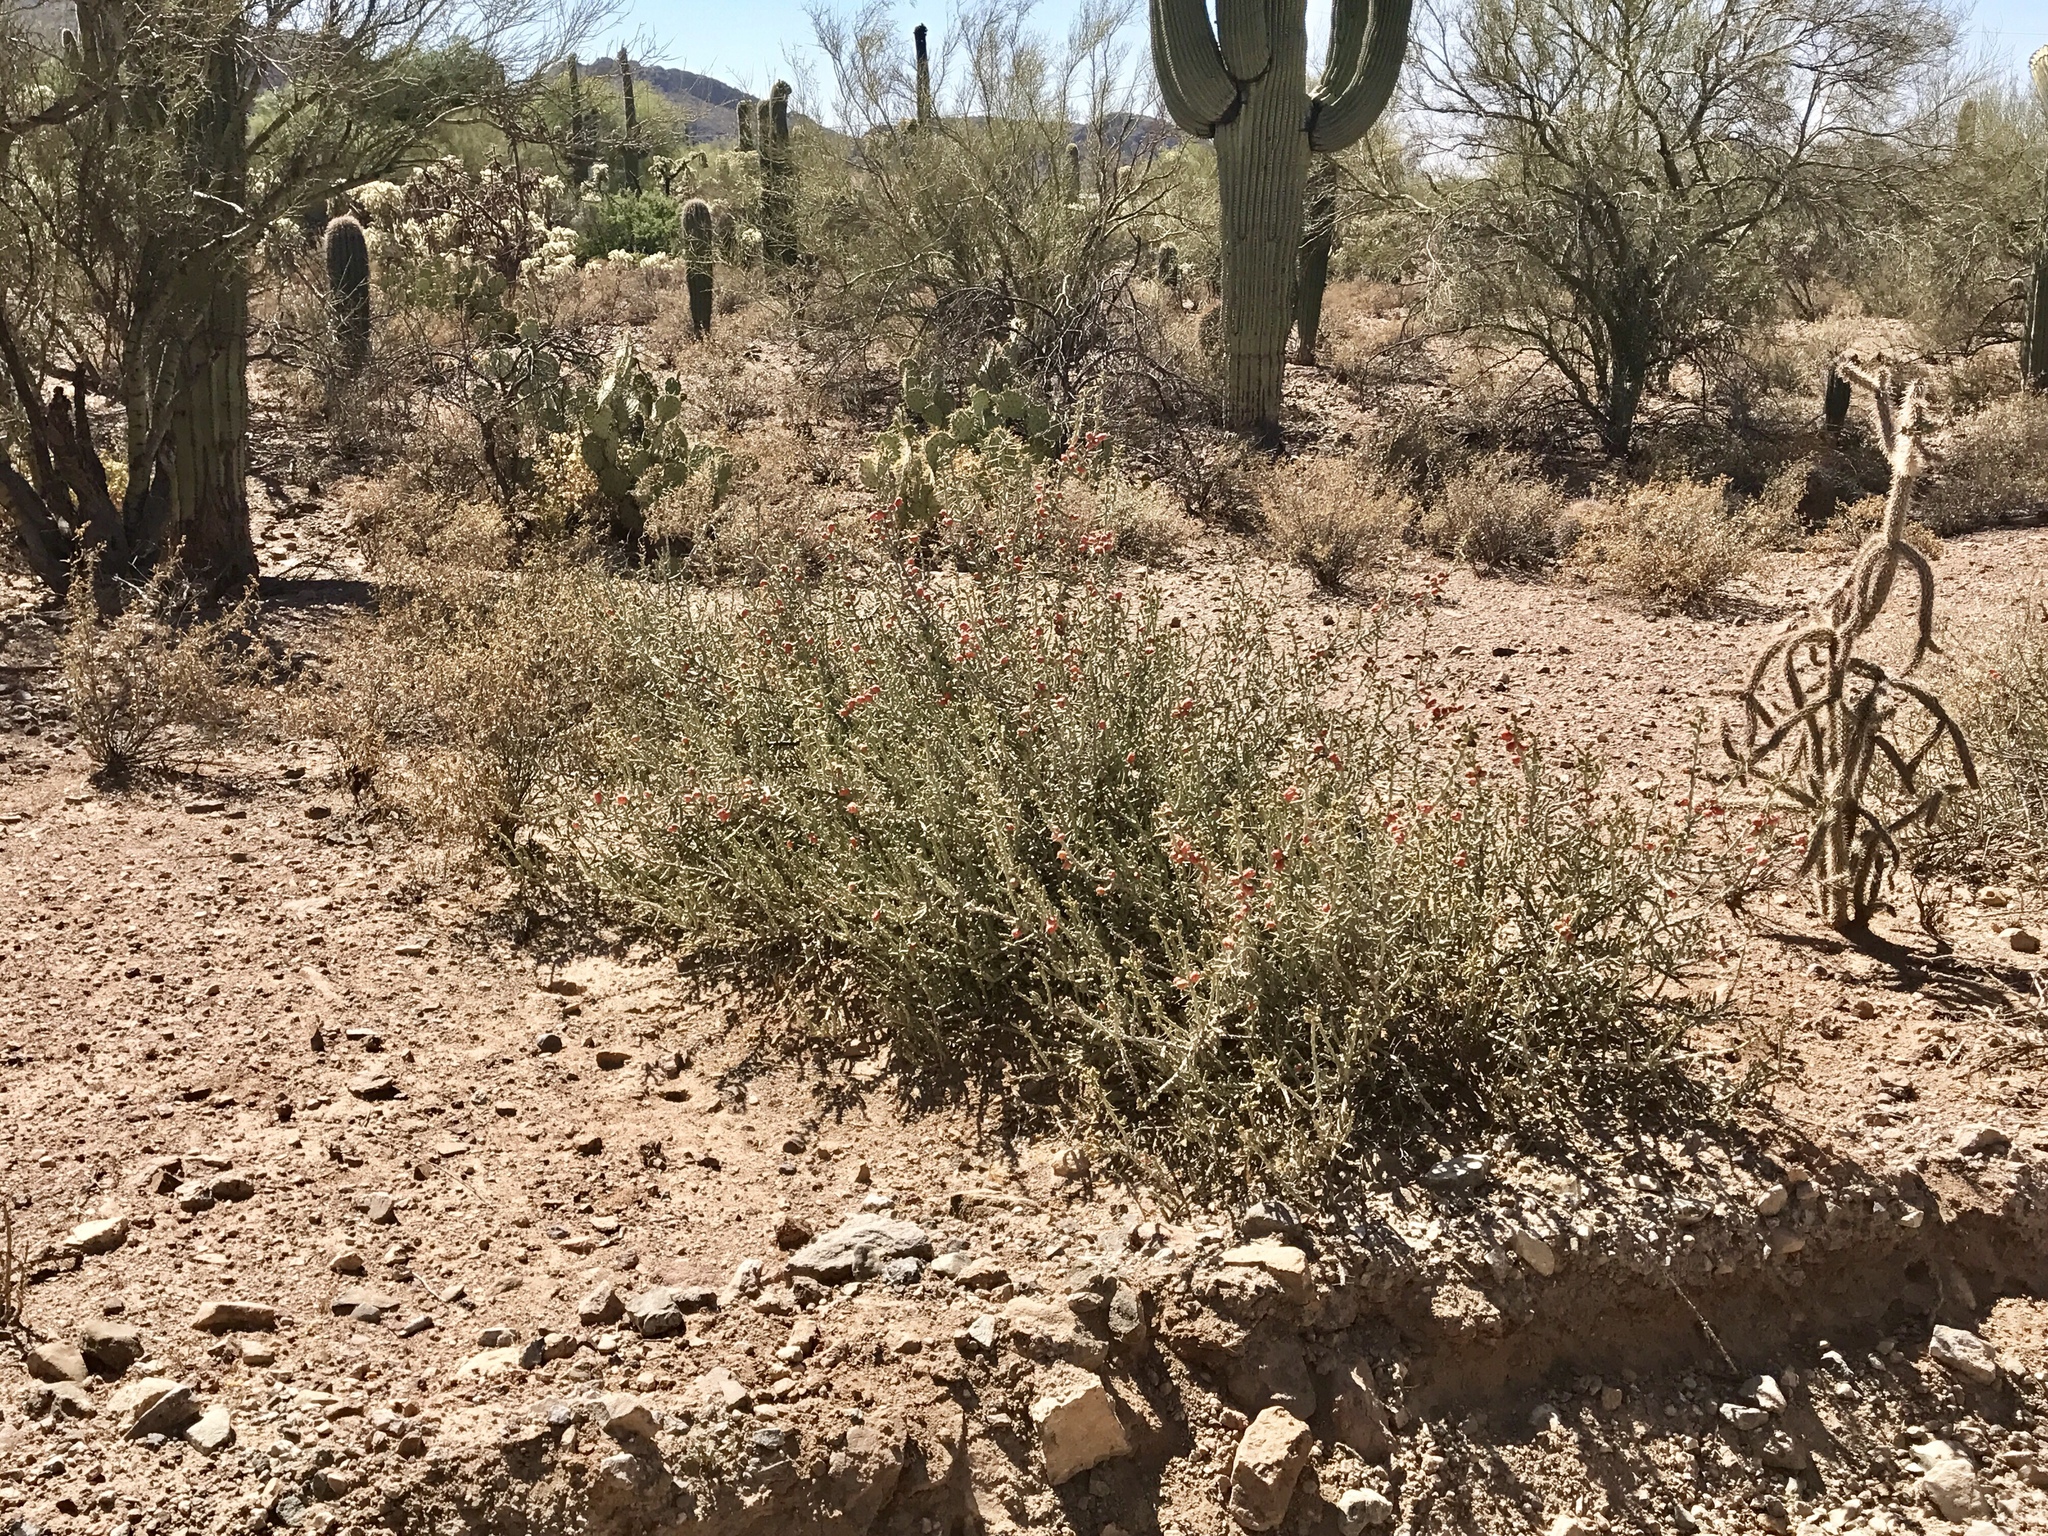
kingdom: Plantae
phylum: Tracheophyta
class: Magnoliopsida
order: Caryophyllales
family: Cactaceae
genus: Cylindropuntia
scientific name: Cylindropuntia leptocaulis
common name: Christmas cactus
